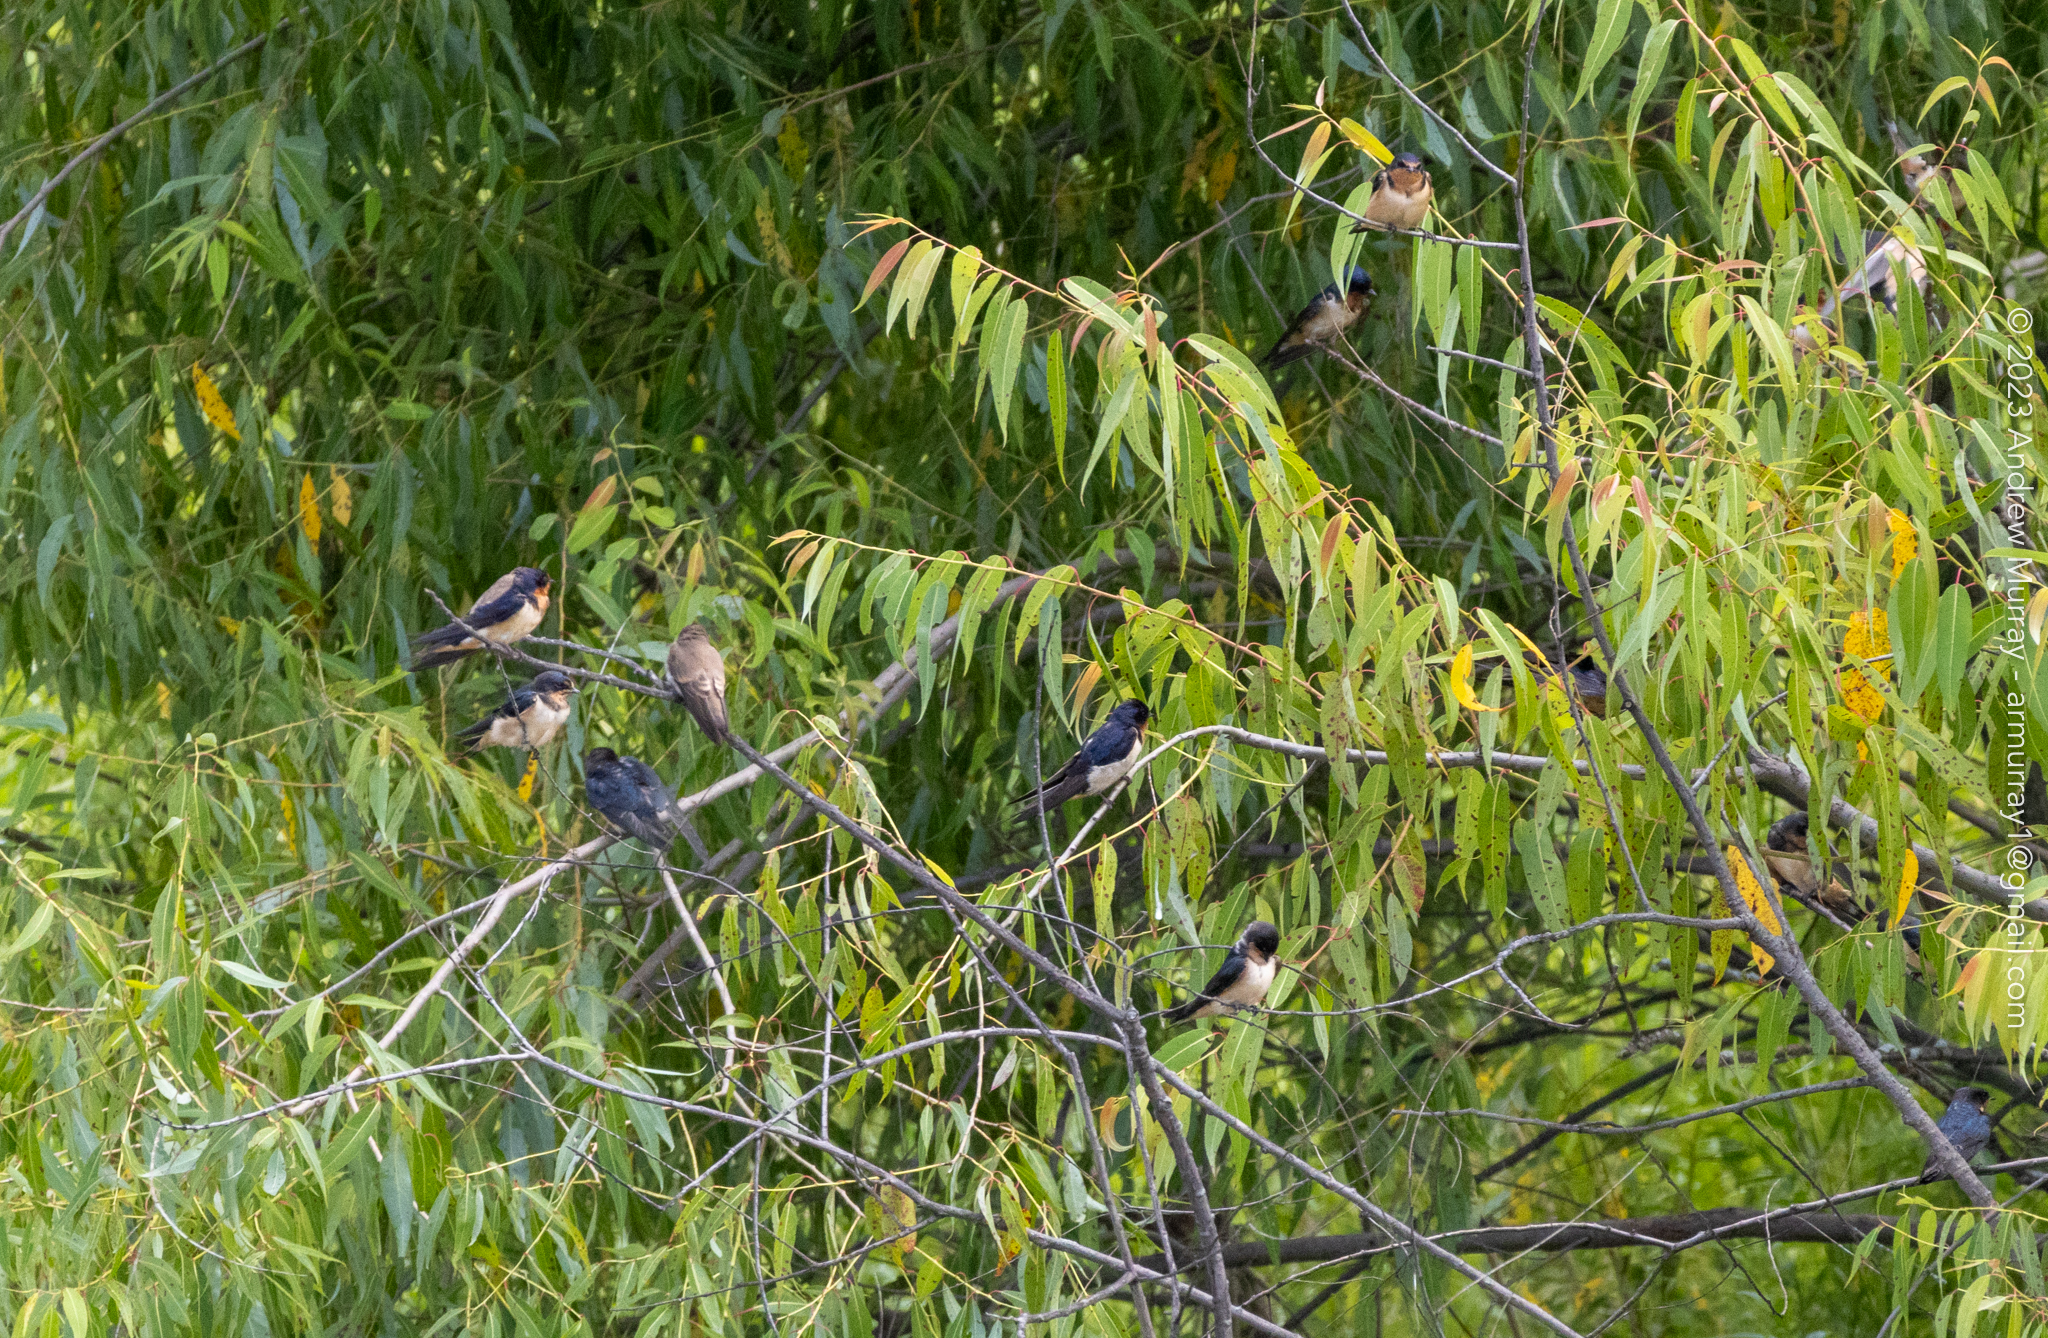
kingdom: Animalia
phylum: Chordata
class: Aves
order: Passeriformes
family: Hirundinidae
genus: Hirundo
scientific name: Hirundo rustica
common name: Barn swallow
